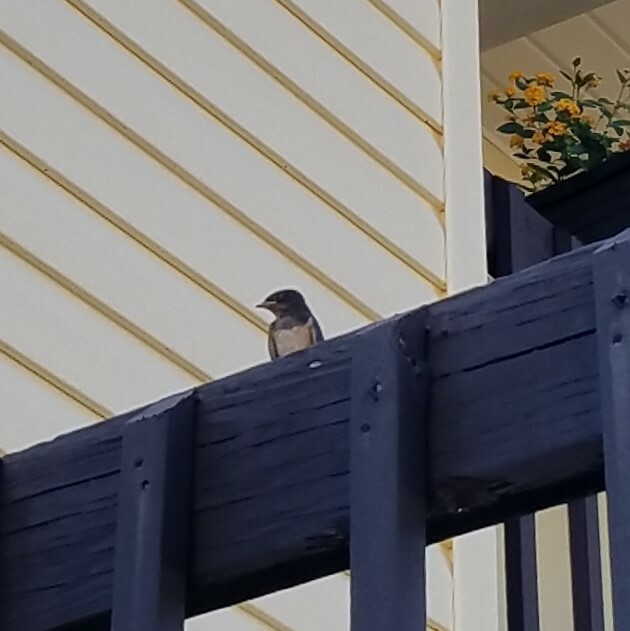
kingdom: Animalia
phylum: Chordata
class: Aves
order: Passeriformes
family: Hirundinidae
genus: Hirundo
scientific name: Hirundo rustica
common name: Barn swallow
